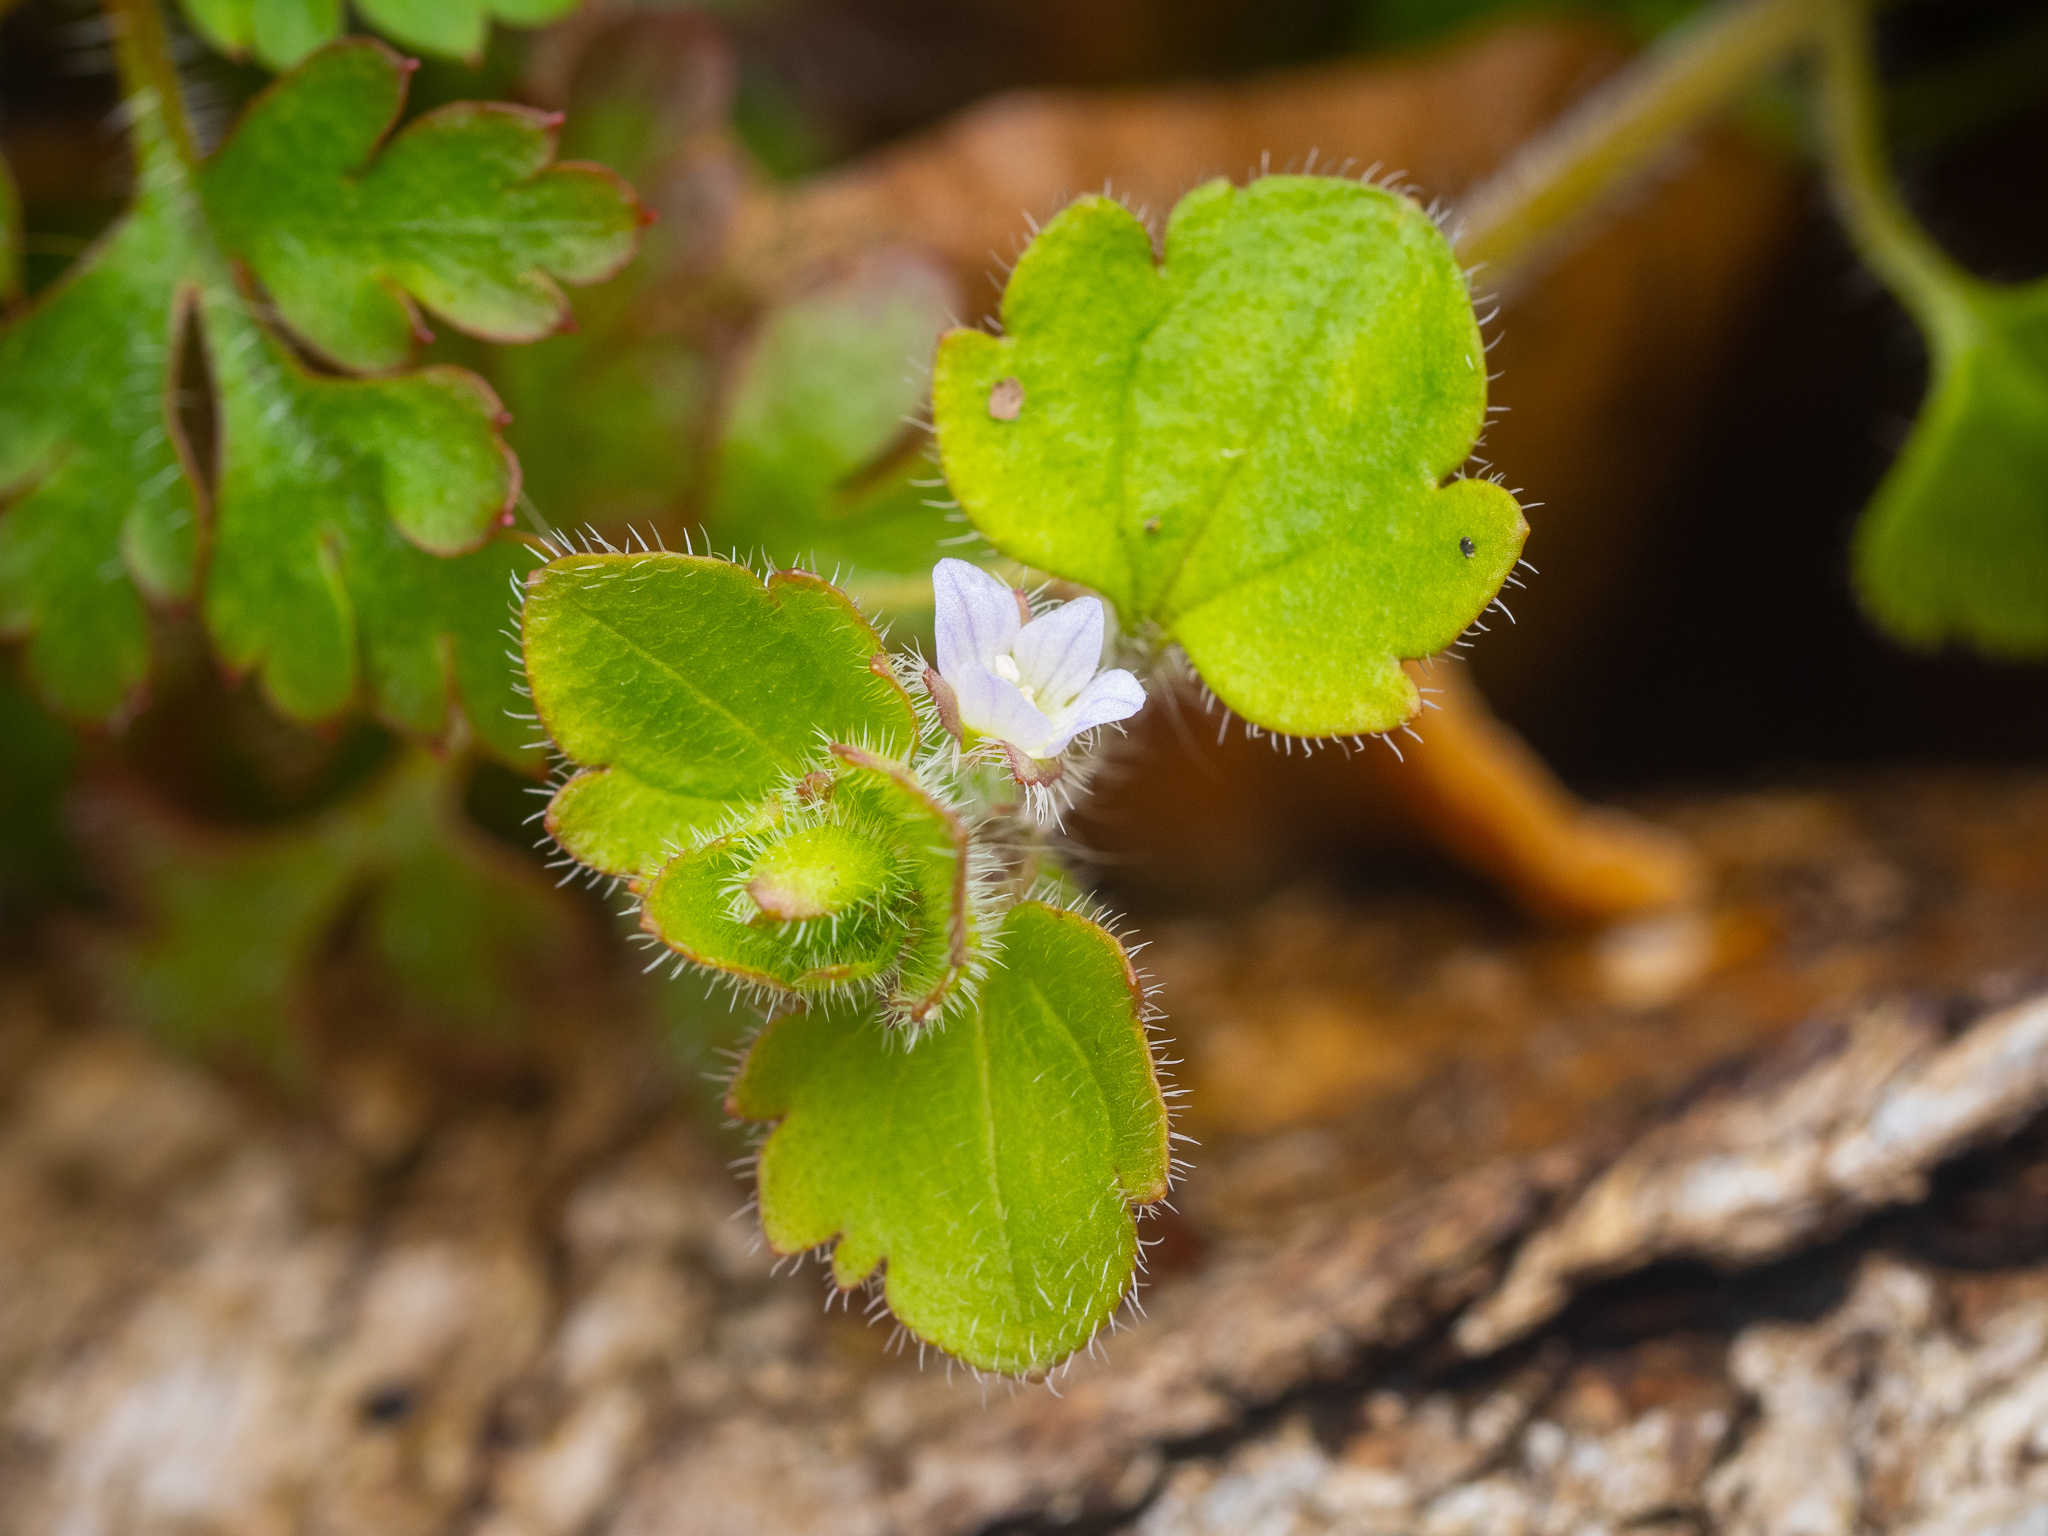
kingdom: Plantae
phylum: Tracheophyta
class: Magnoliopsida
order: Lamiales
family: Plantaginaceae
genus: Veronica
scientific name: Veronica sublobata
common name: False ivy-leaved speedwell
